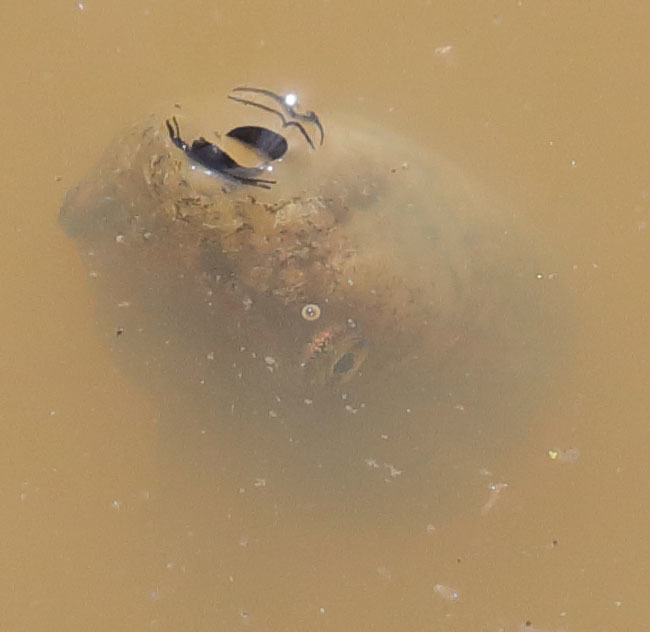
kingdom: Animalia
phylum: Chordata
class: Amphibia
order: Anura
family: Hylidae
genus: Pseudacris
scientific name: Pseudacris regilla
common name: Pacific chorus frog
